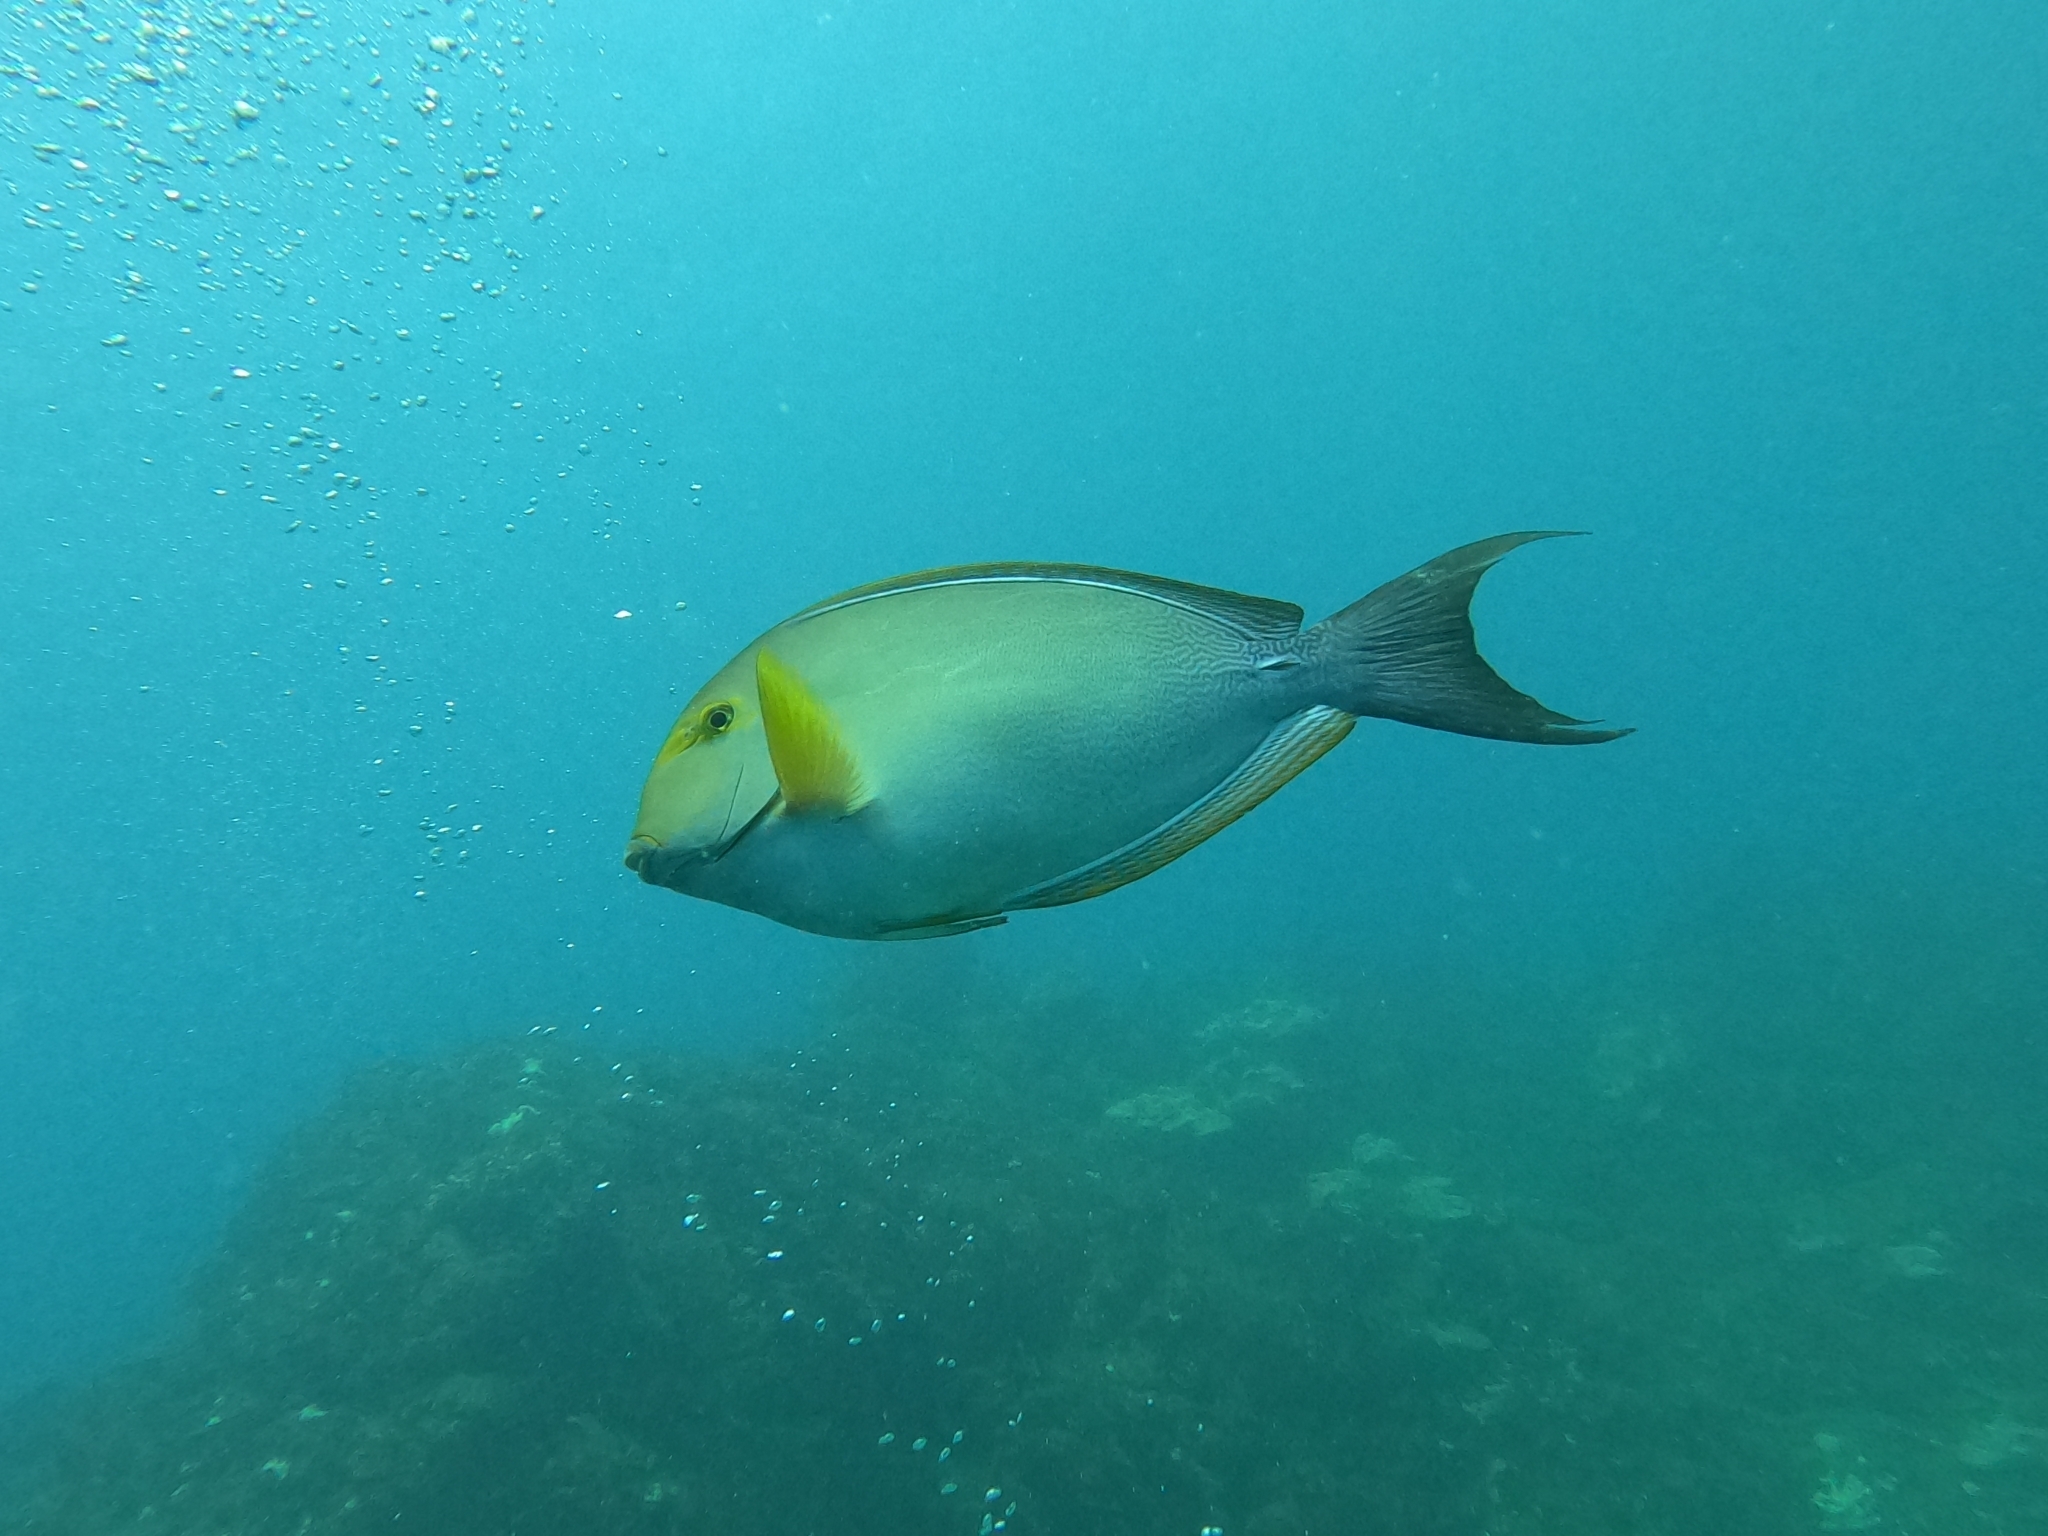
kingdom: Animalia
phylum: Chordata
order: Perciformes
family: Acanthuridae
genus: Acanthurus
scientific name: Acanthurus xanthopterus
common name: Cuvier's surgeonfish
